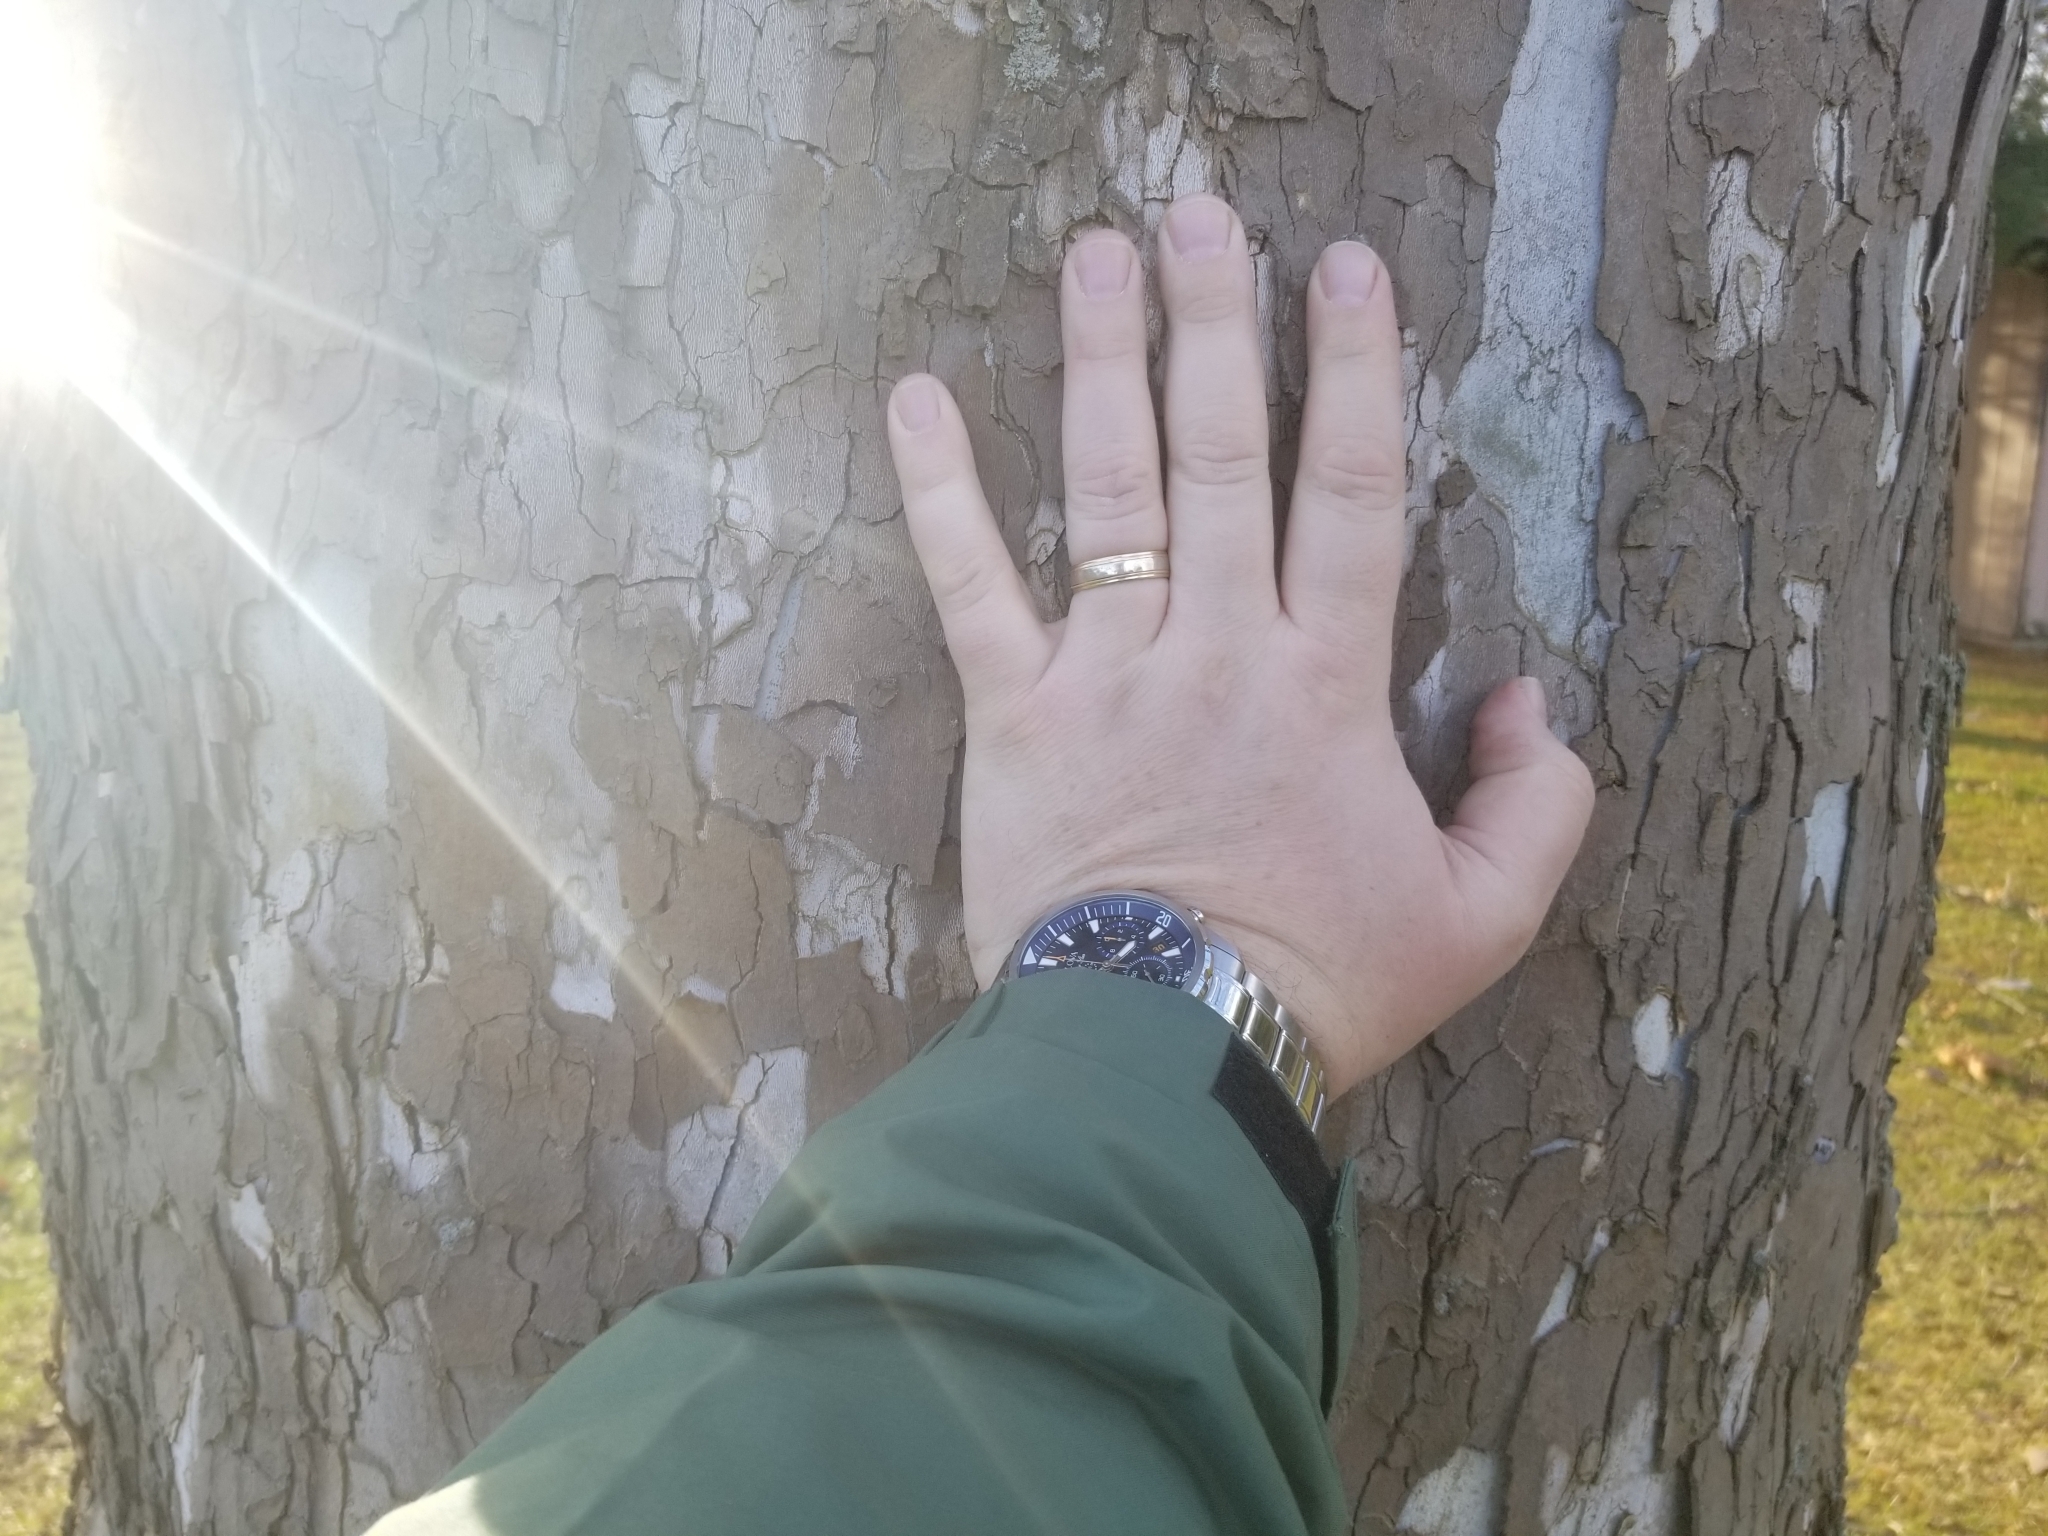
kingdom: Plantae
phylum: Tracheophyta
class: Magnoliopsida
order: Proteales
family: Platanaceae
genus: Platanus
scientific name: Platanus occidentalis
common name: American sycamore
